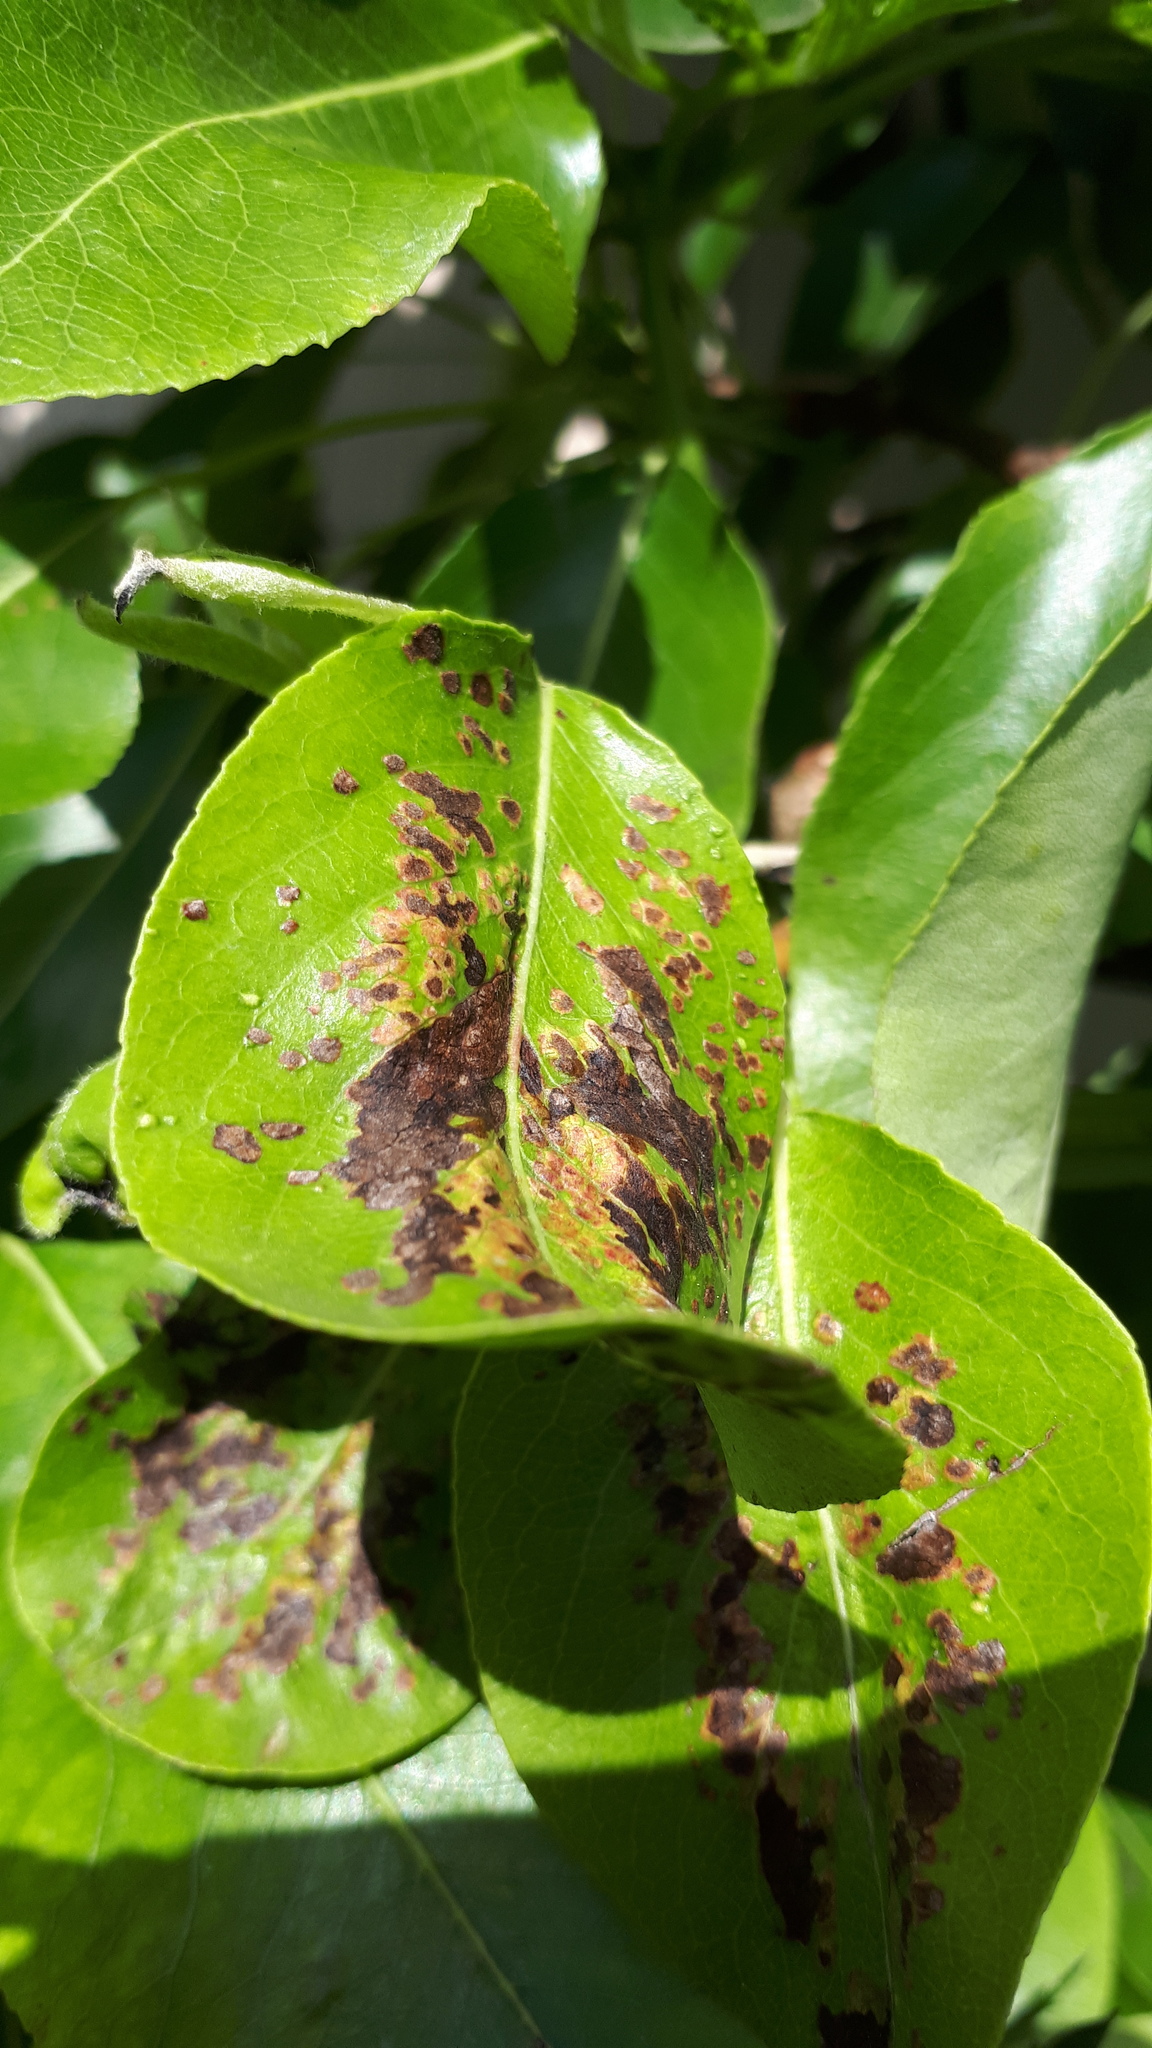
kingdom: Animalia
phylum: Arthropoda
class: Arachnida
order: Trombidiformes
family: Eriophyidae
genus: Eriophyes
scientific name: Eriophyes pyri
